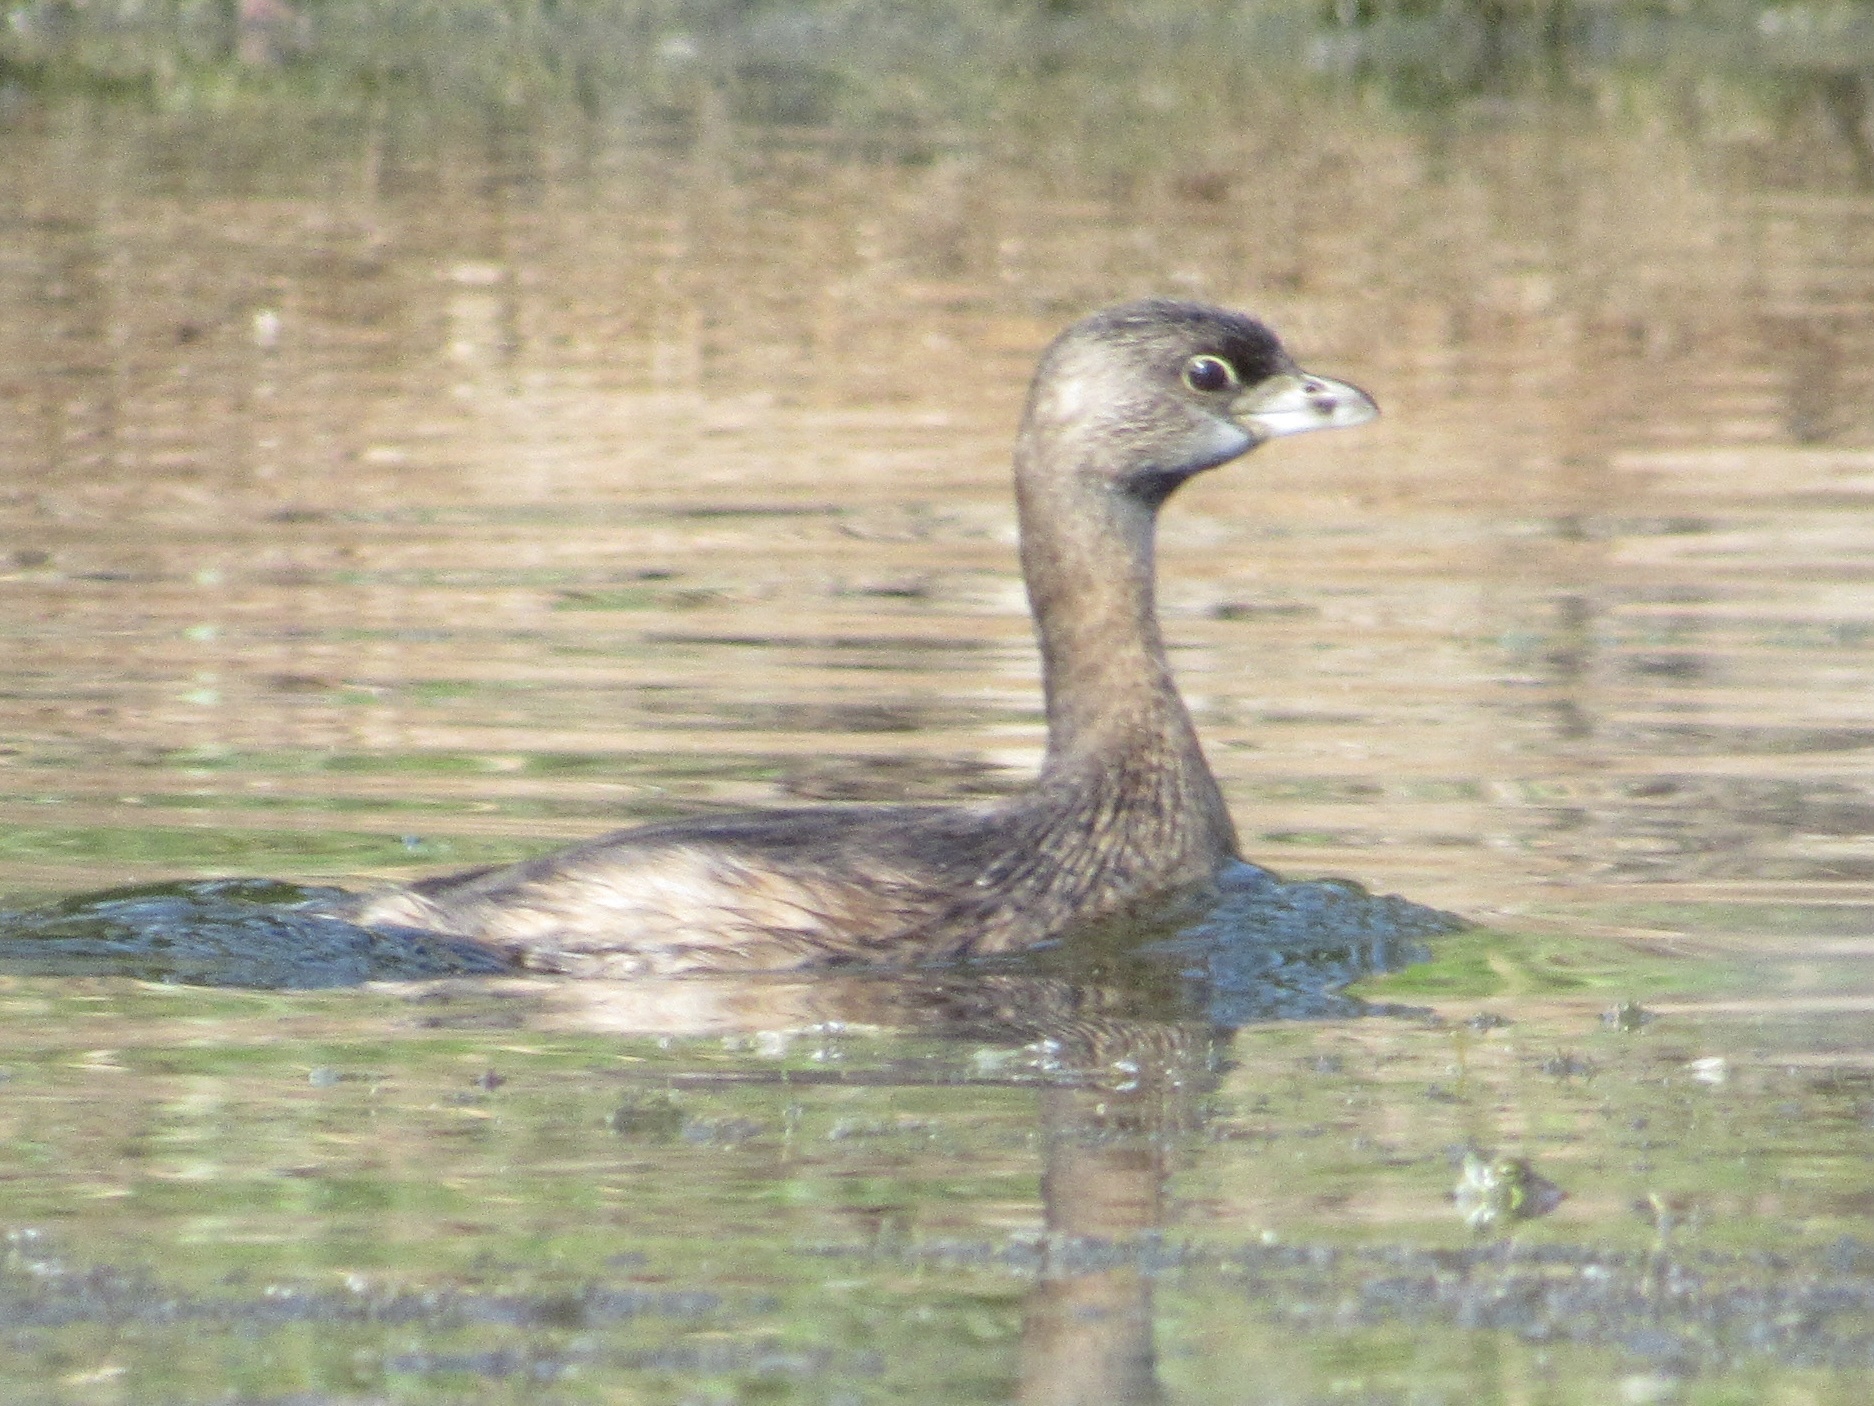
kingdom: Animalia
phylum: Chordata
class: Aves
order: Podicipediformes
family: Podicipedidae
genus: Podilymbus
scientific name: Podilymbus podiceps
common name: Pied-billed grebe
